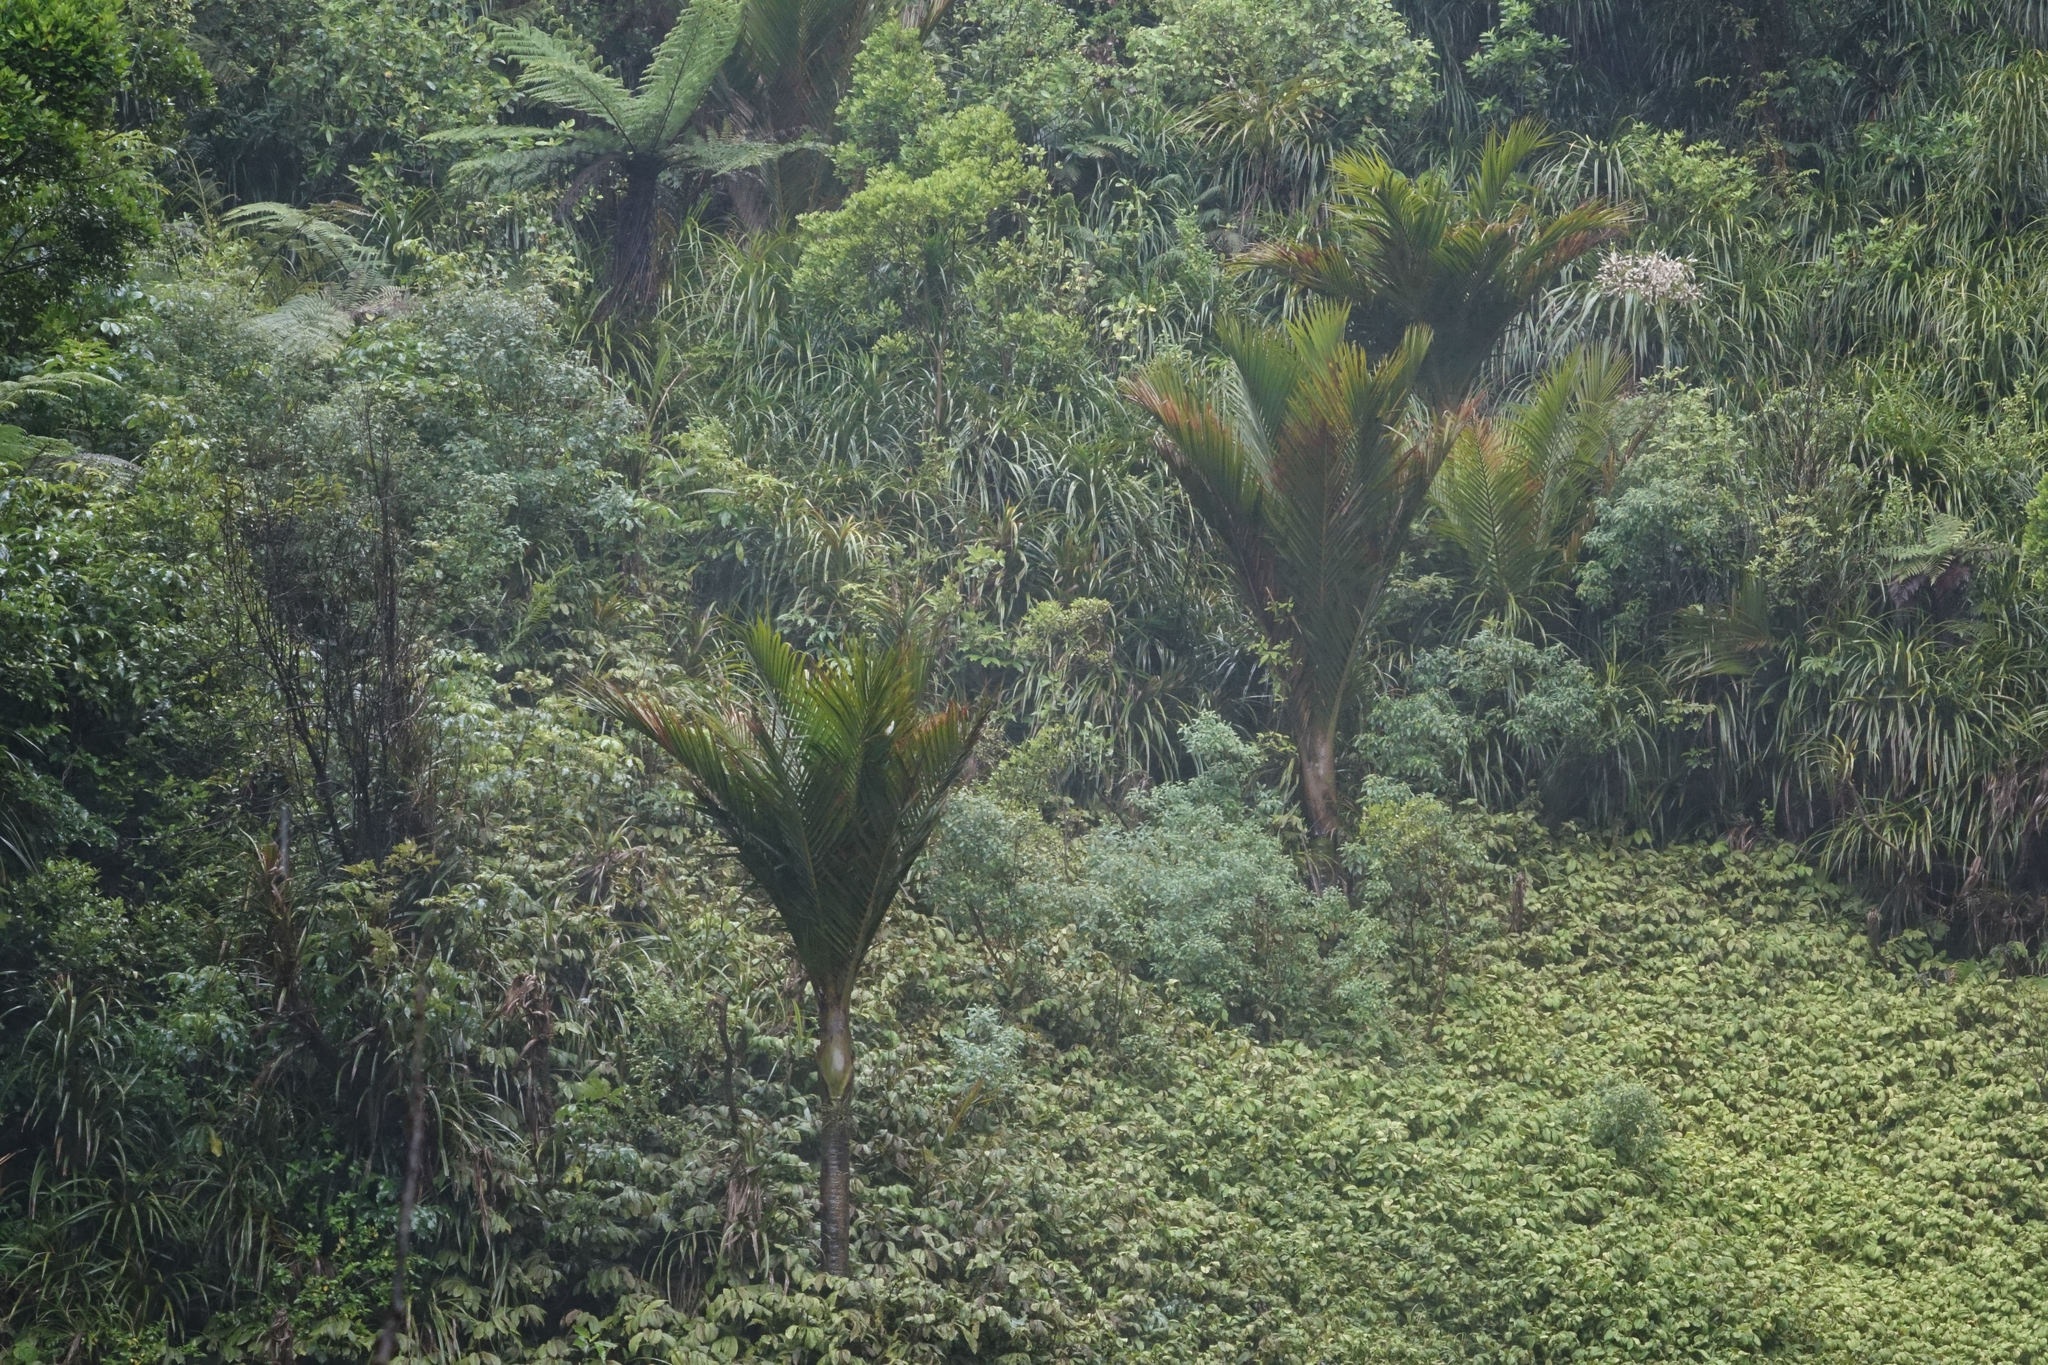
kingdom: Plantae
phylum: Tracheophyta
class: Liliopsida
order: Arecales
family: Arecaceae
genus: Rhopalostylis
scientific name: Rhopalostylis sapida
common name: Feather-duster palm
